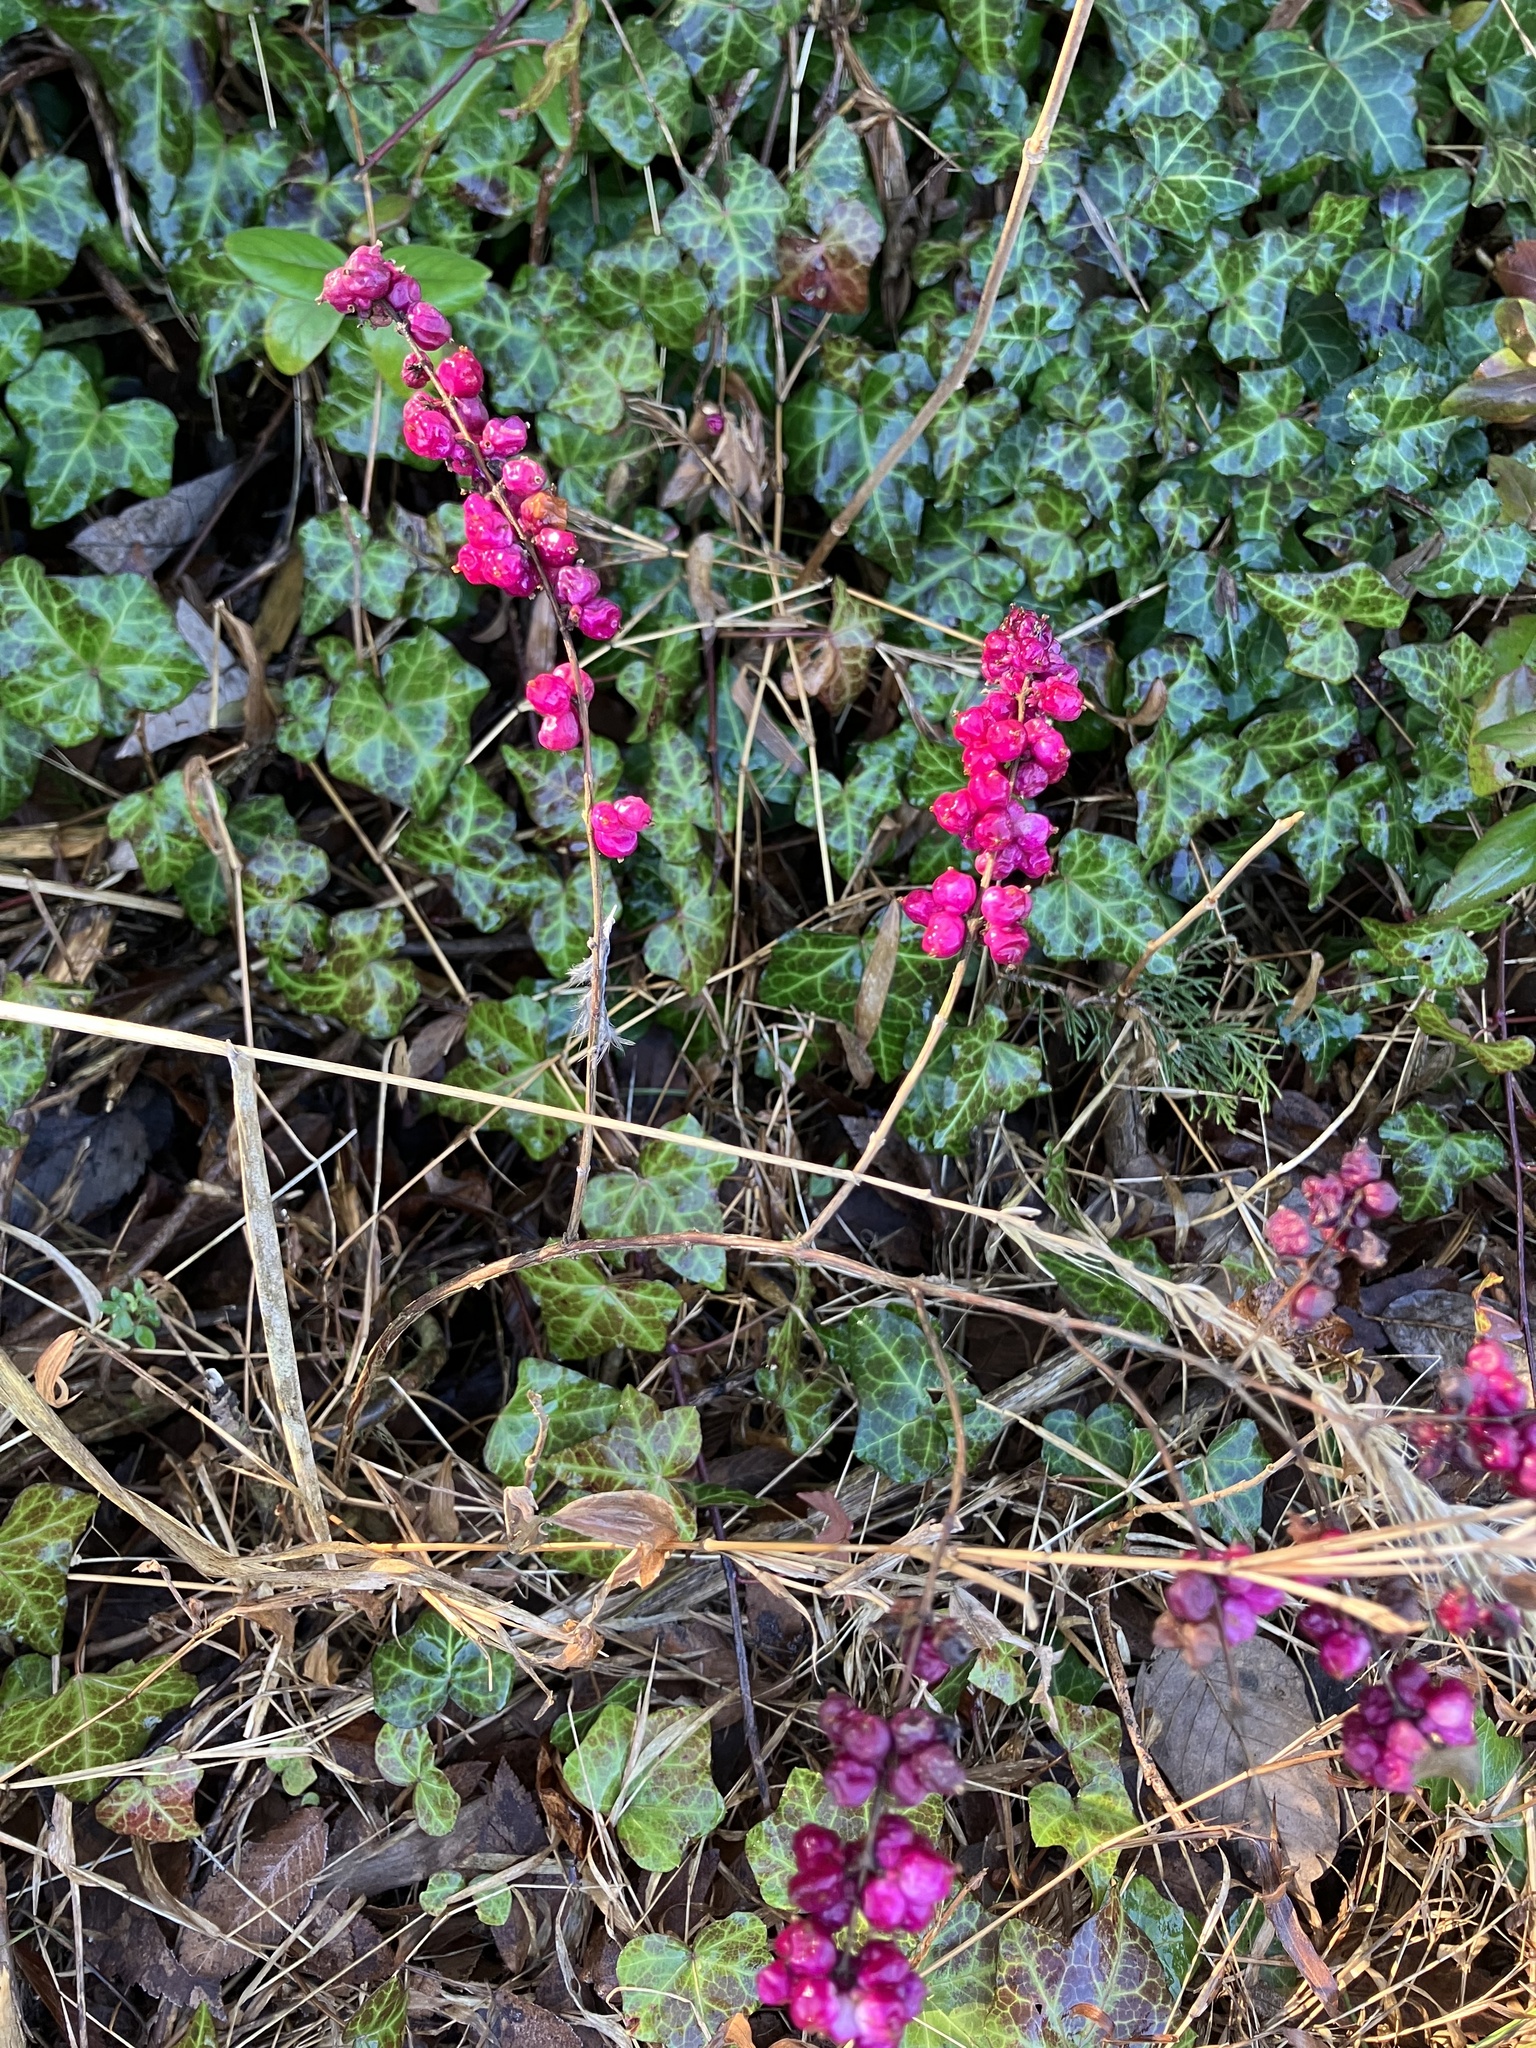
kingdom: Plantae
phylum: Tracheophyta
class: Magnoliopsida
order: Dipsacales
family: Caprifoliaceae
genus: Symphoricarpos
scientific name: Symphoricarpos orbiculatus
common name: Coralberry
